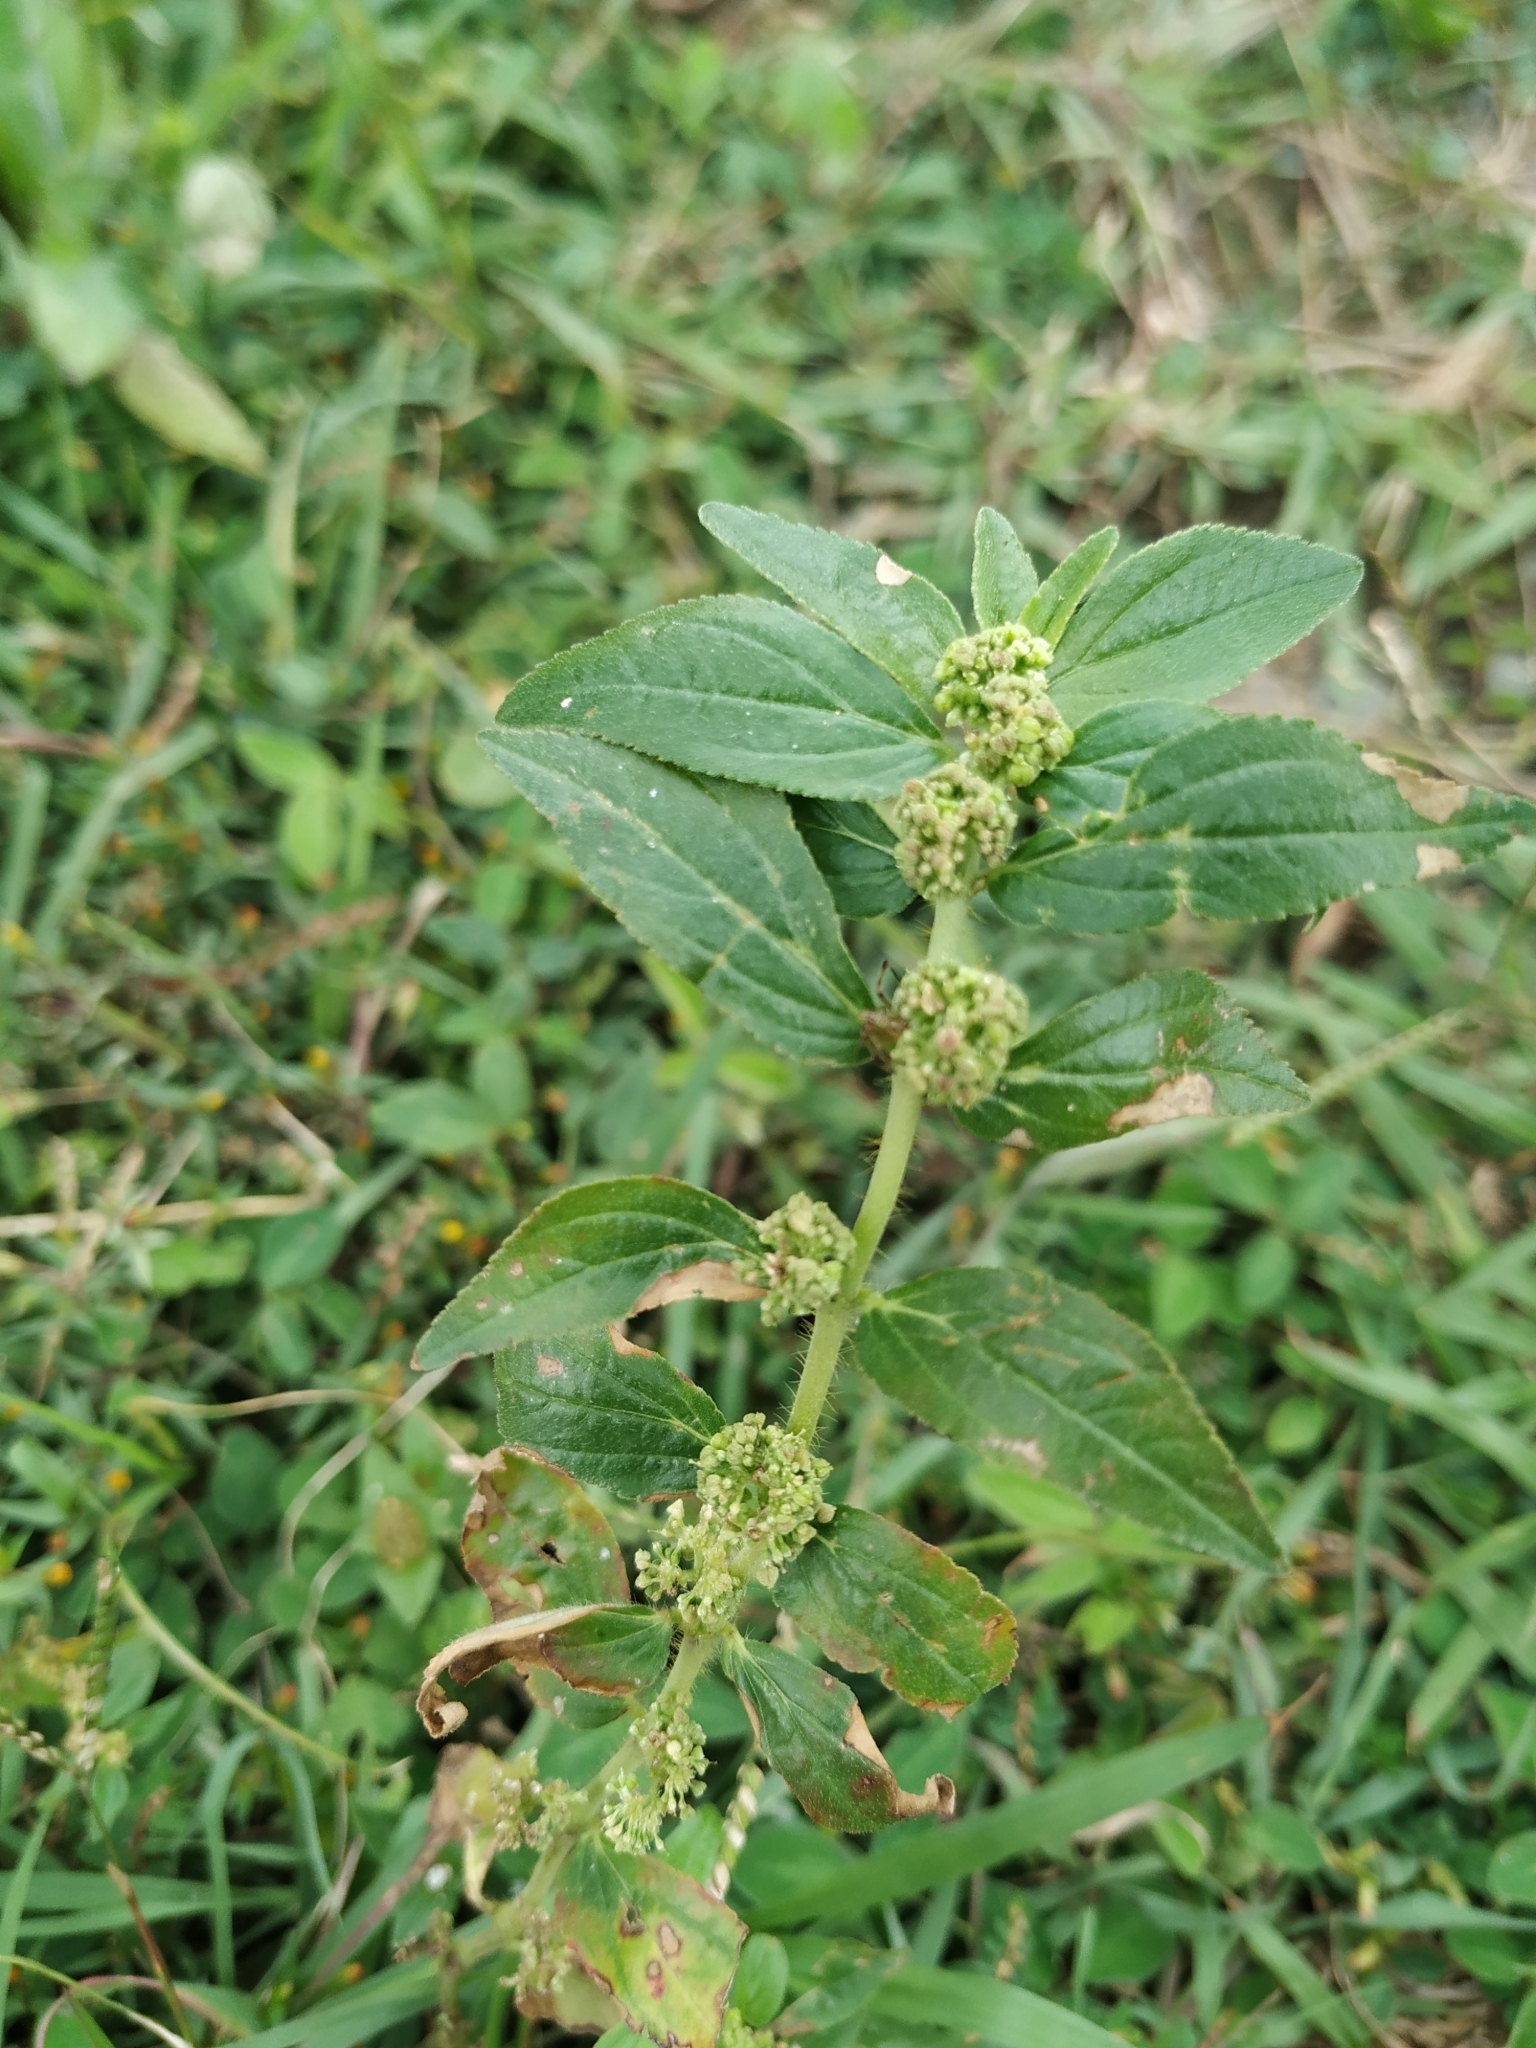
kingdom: Plantae
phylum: Tracheophyta
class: Magnoliopsida
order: Malpighiales
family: Euphorbiaceae
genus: Euphorbia
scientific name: Euphorbia hirta
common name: Pillpod sandmat
